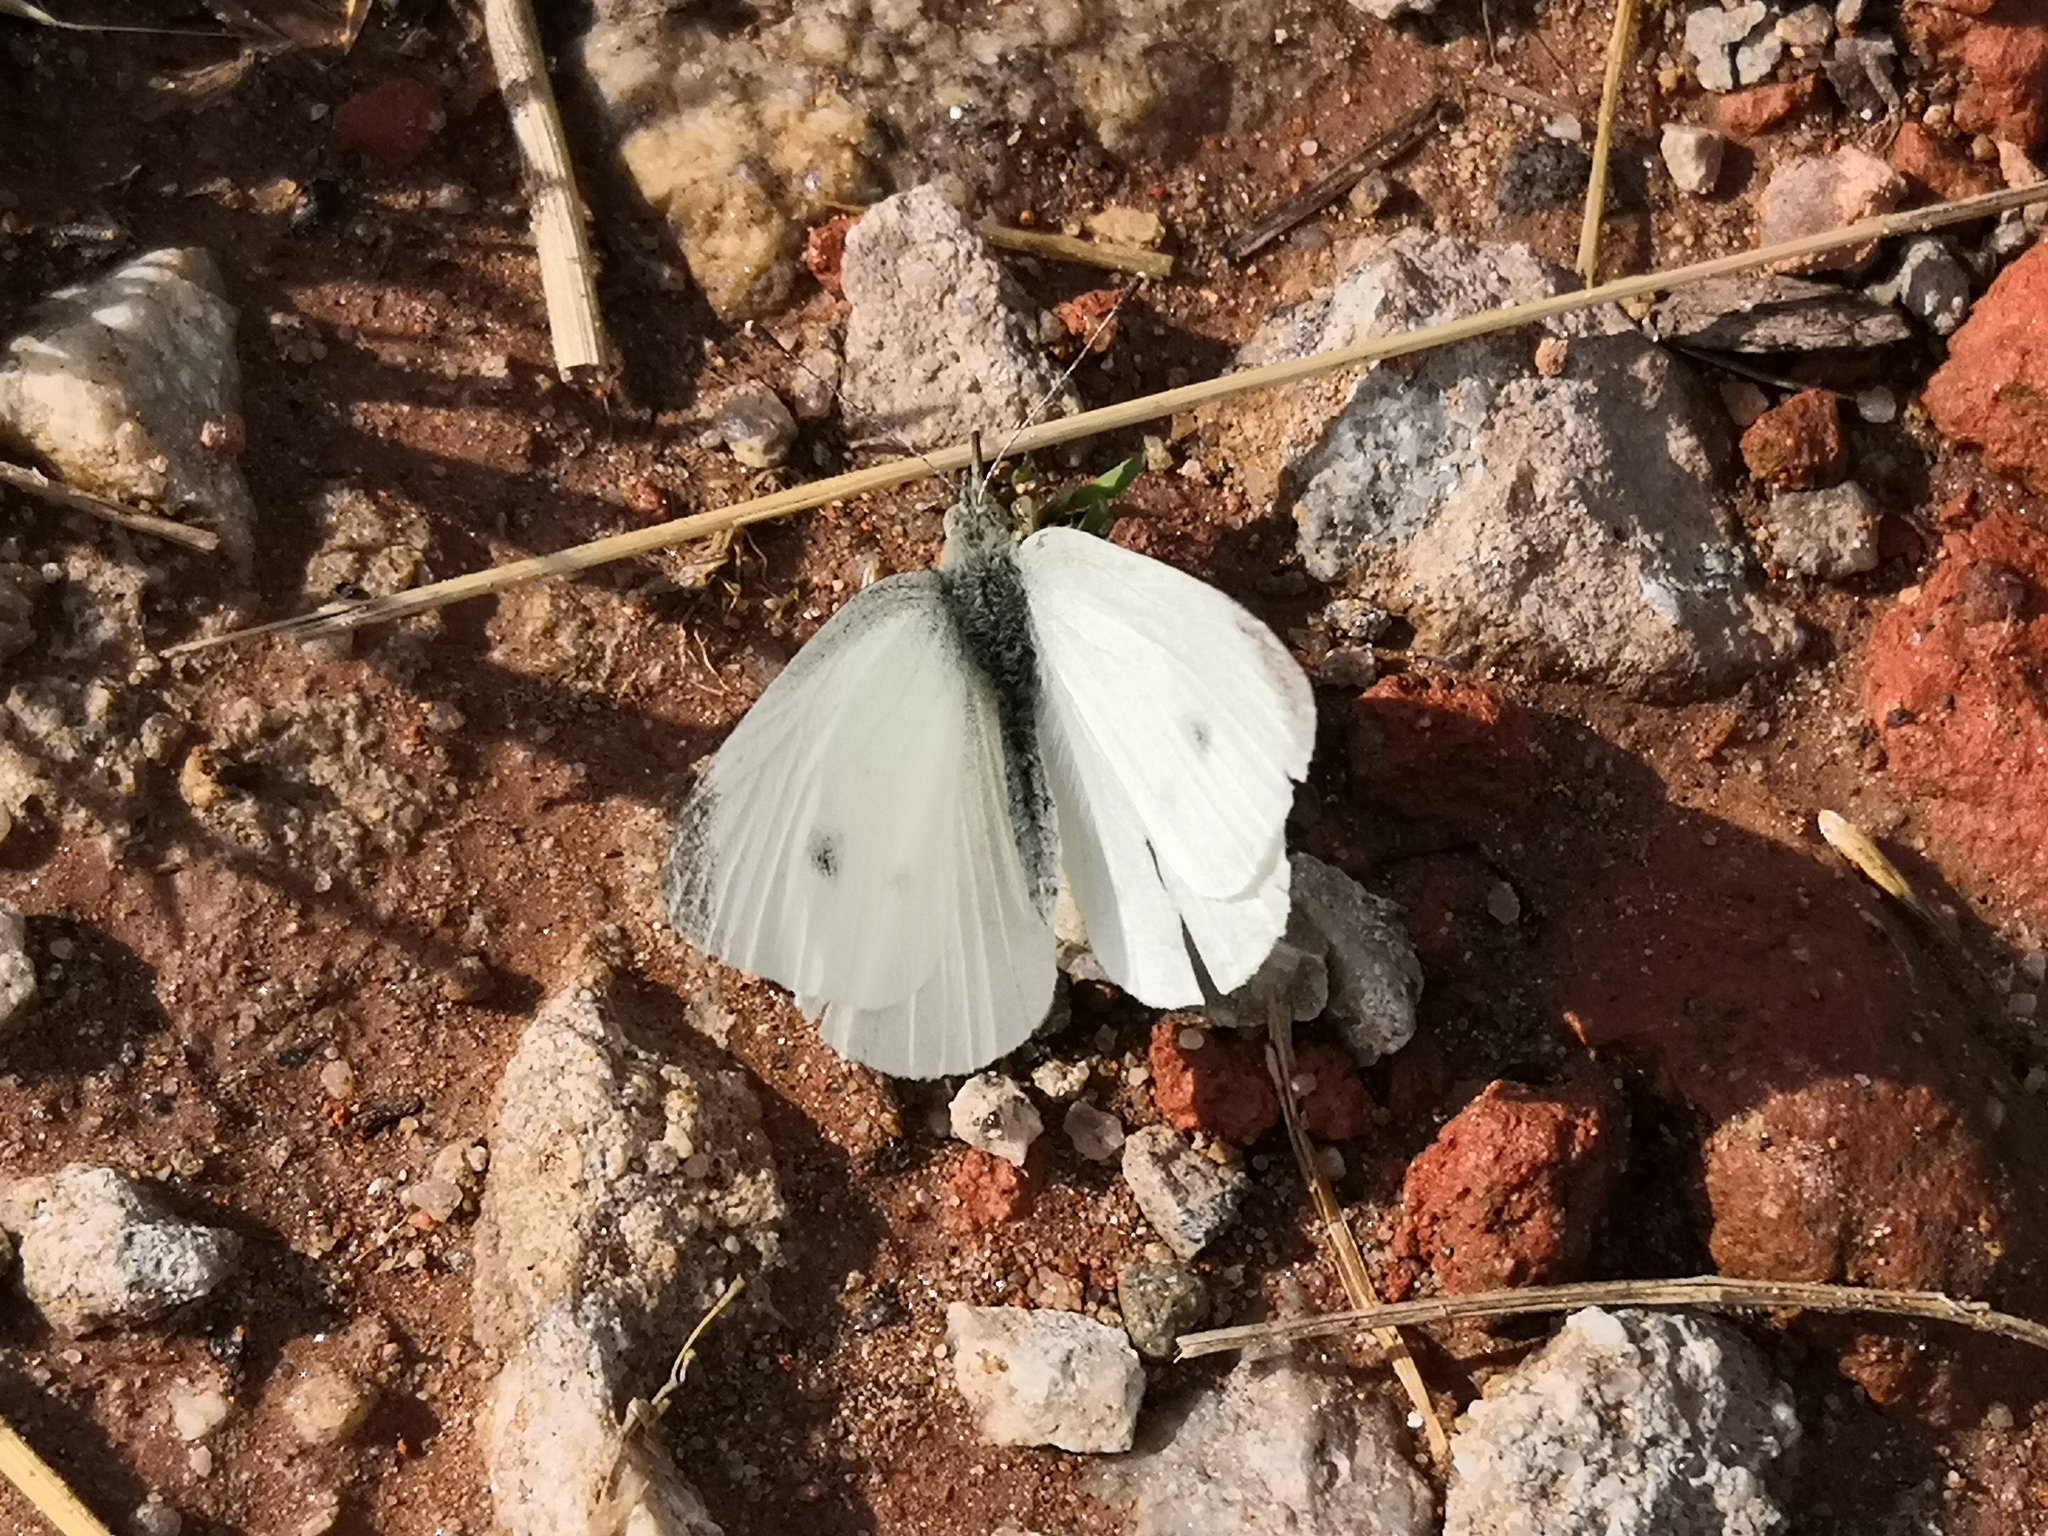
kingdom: Animalia
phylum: Arthropoda
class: Insecta
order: Lepidoptera
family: Pieridae
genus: Pieris
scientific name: Pieris rapae
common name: Small white
